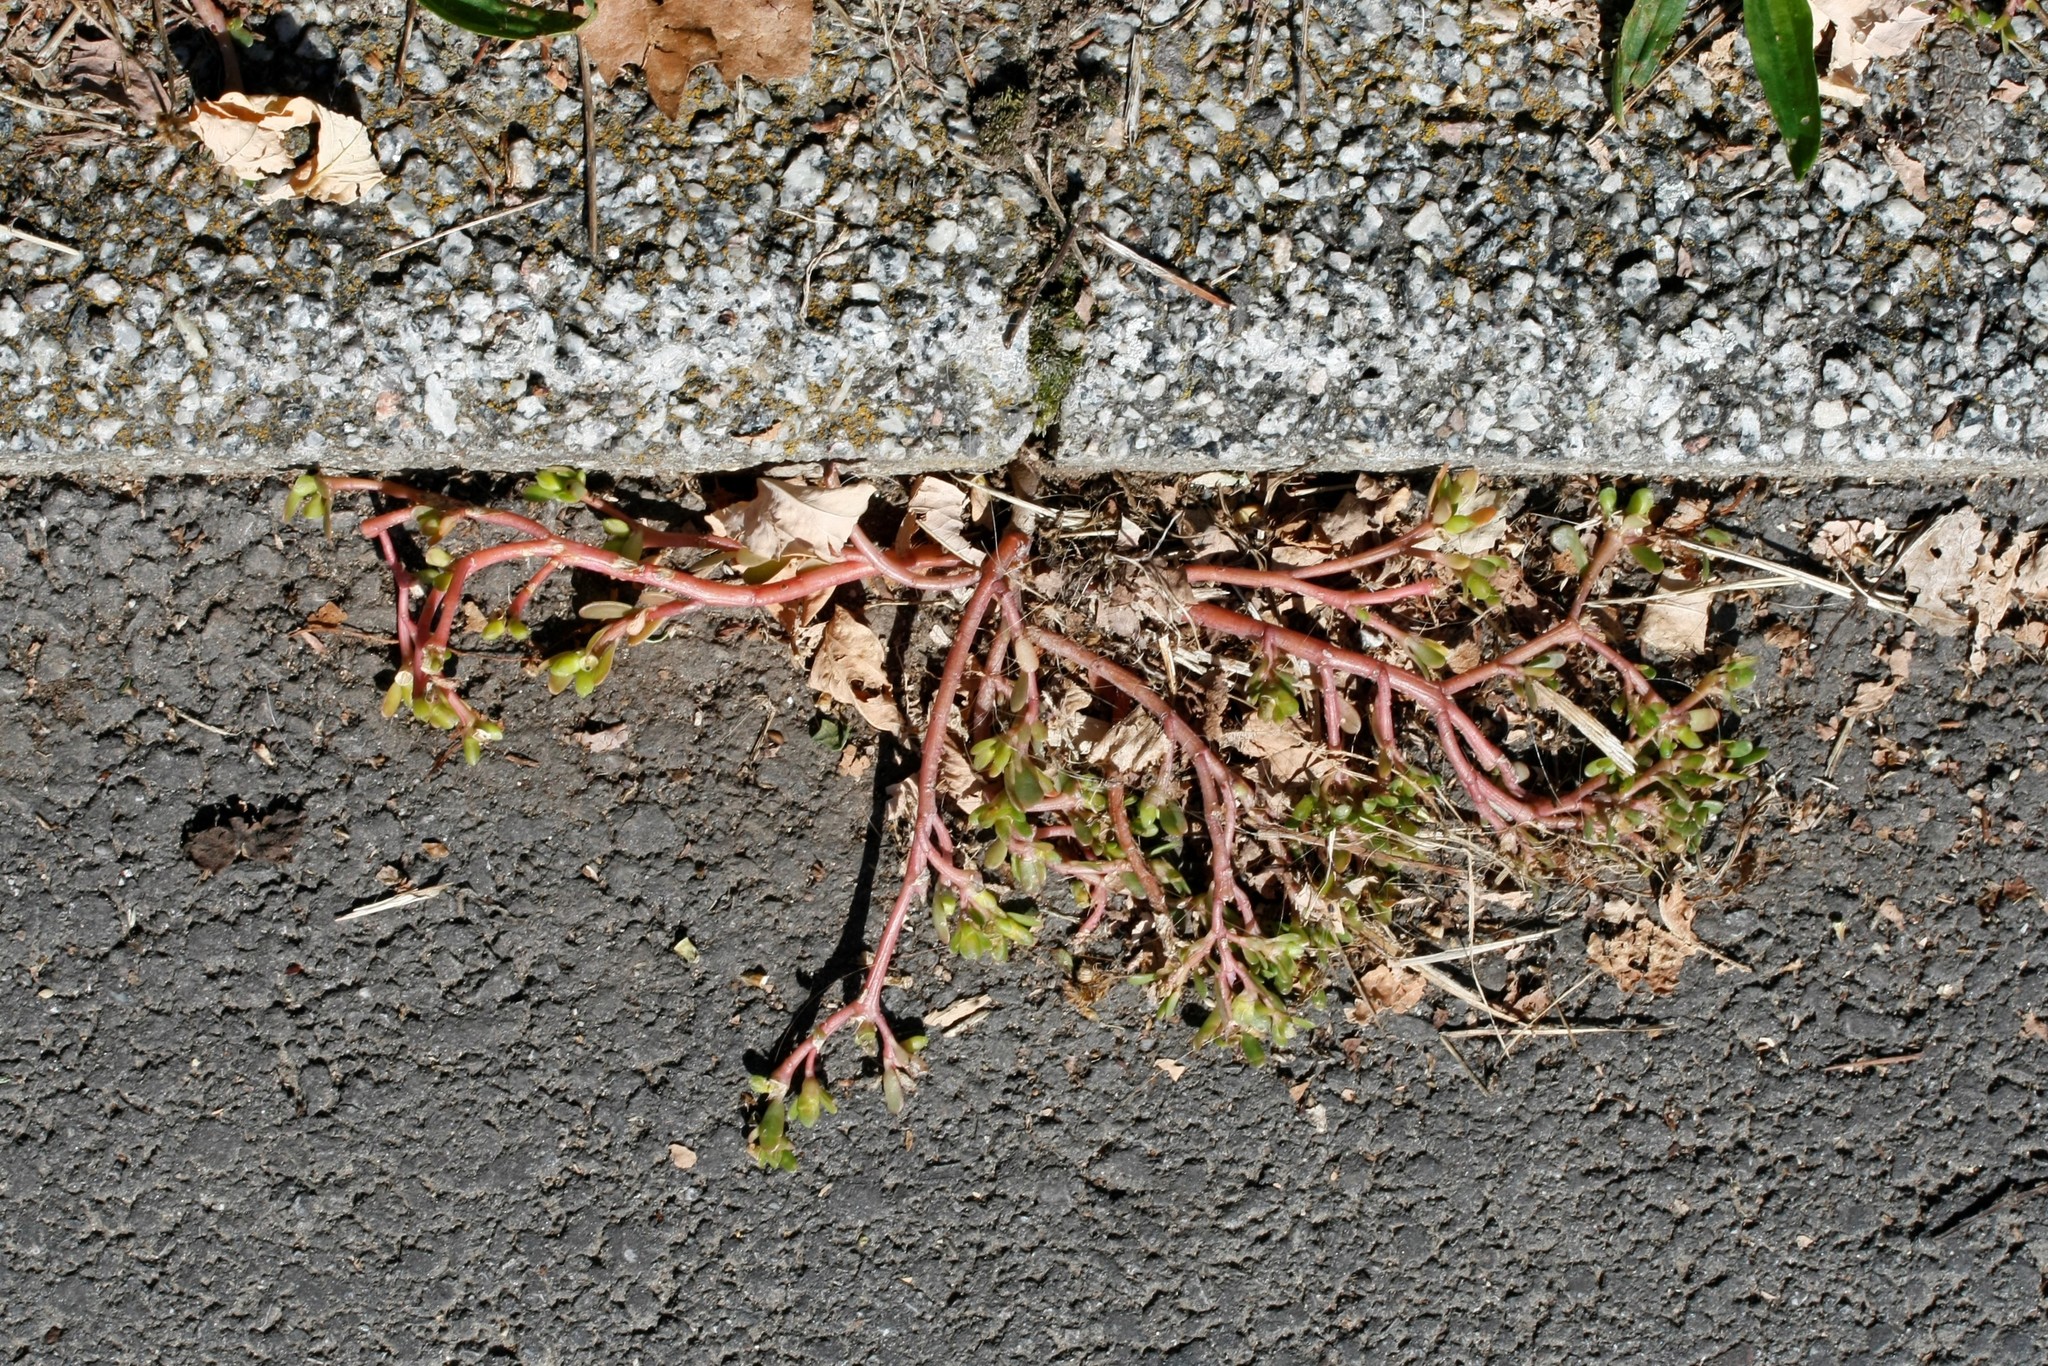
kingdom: Plantae
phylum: Tracheophyta
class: Magnoliopsida
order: Caryophyllales
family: Portulacaceae
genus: Portulaca
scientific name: Portulaca oleracea
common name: Common purslane
